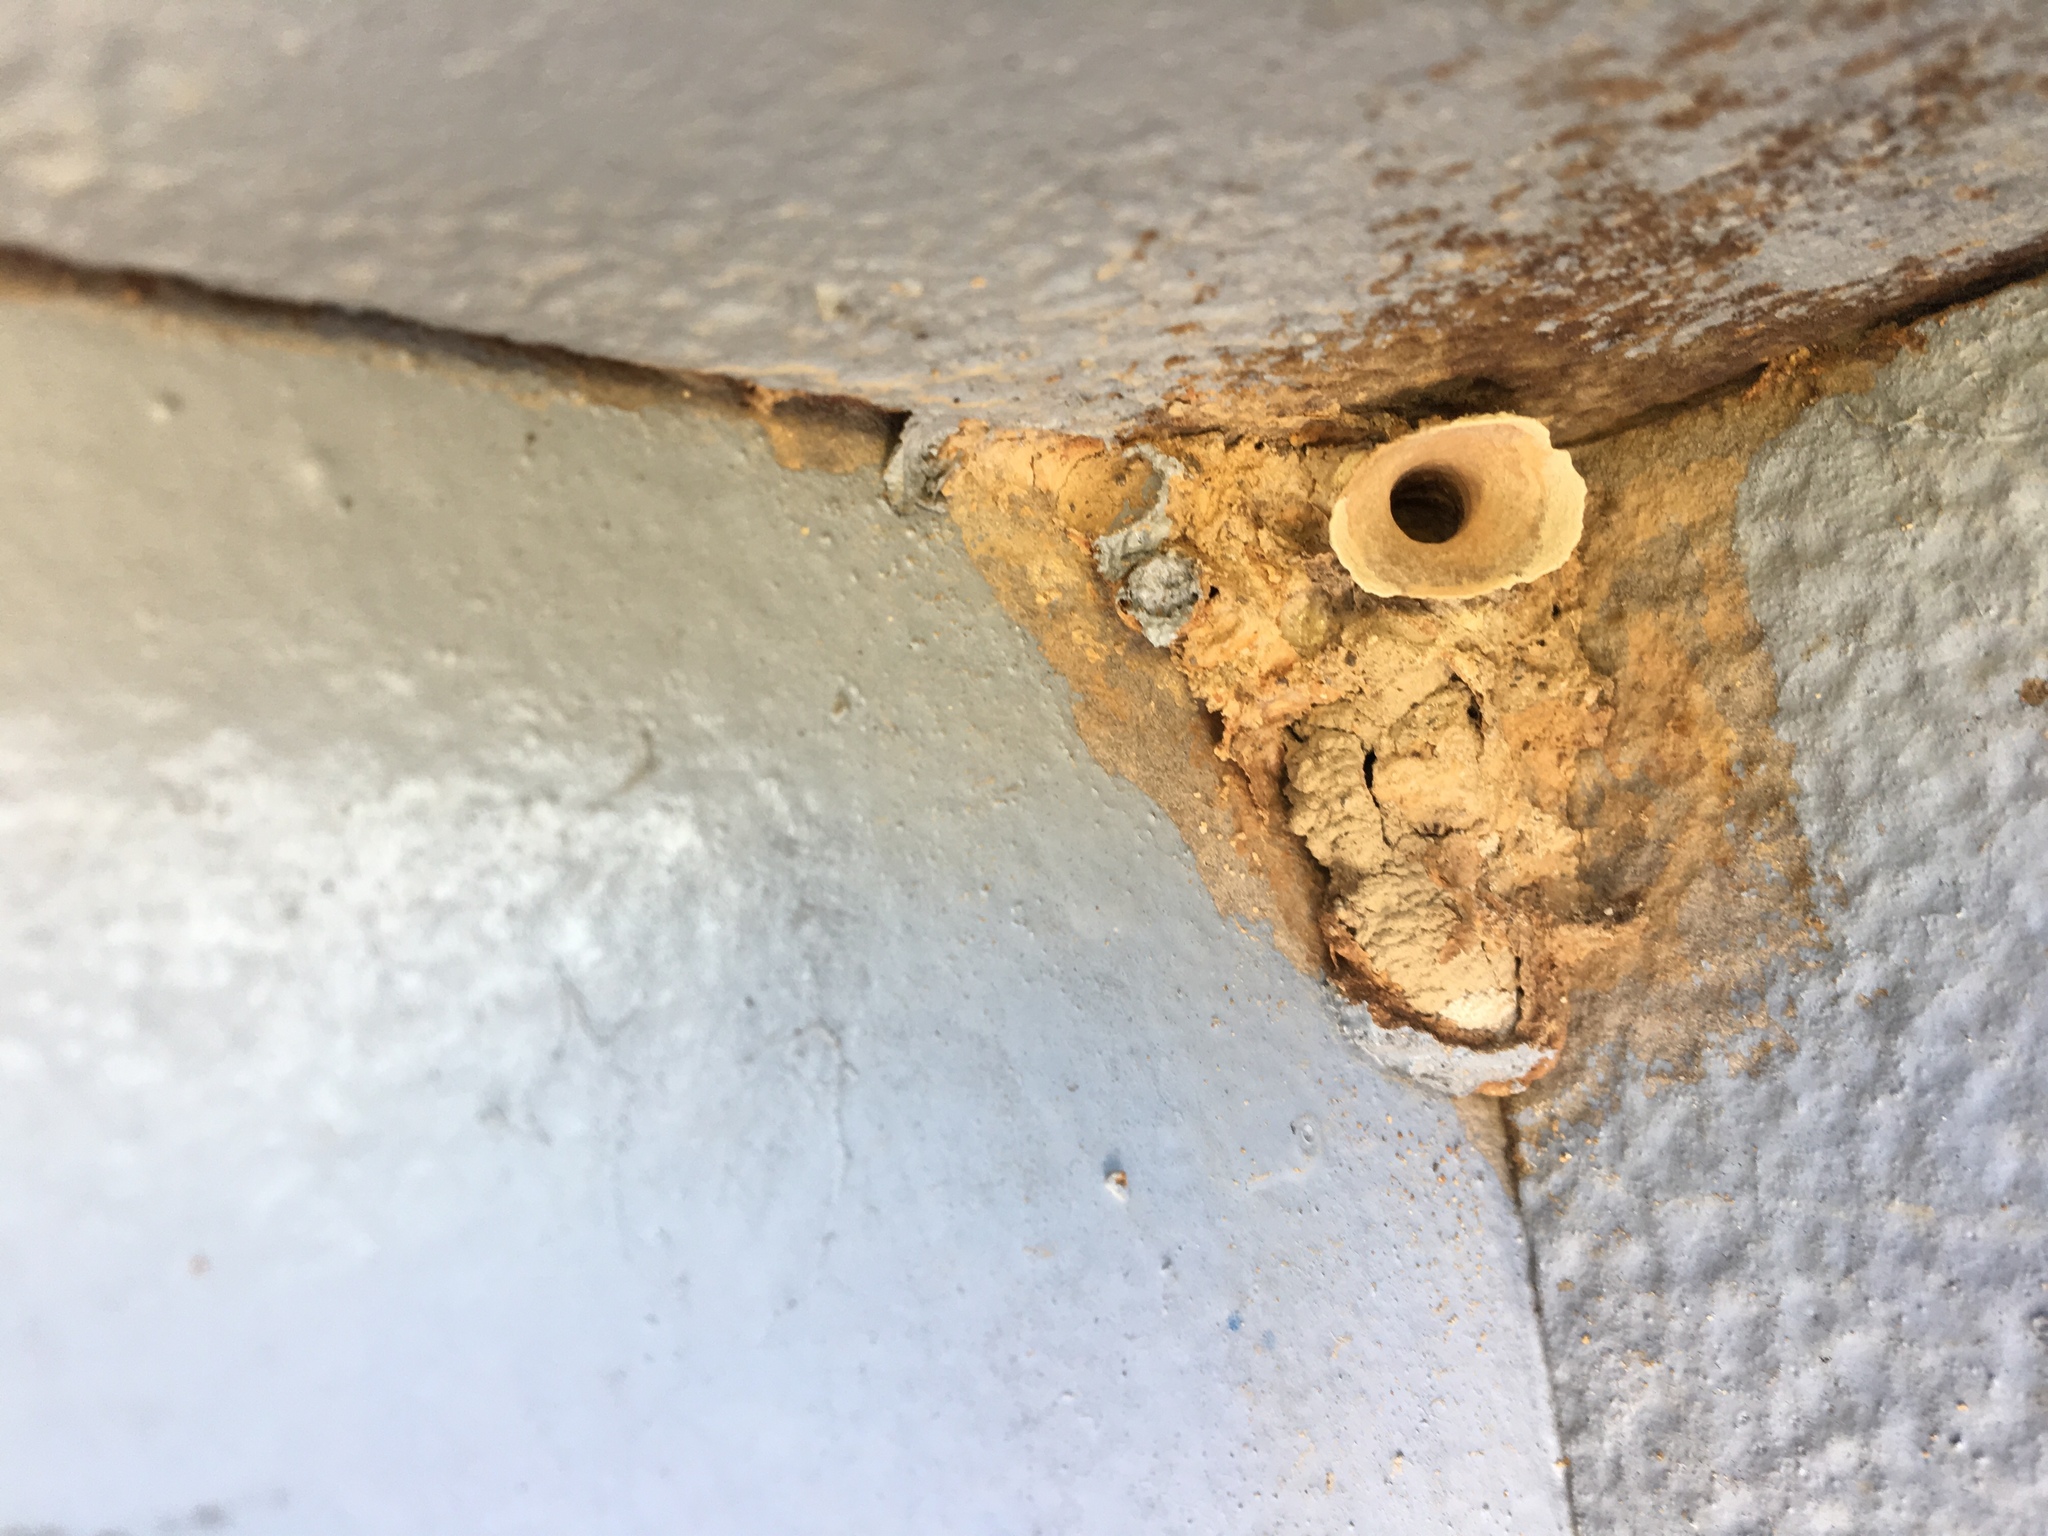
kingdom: Animalia
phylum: Arthropoda
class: Insecta
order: Hymenoptera
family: Eumenidae
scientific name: Eumenidae
